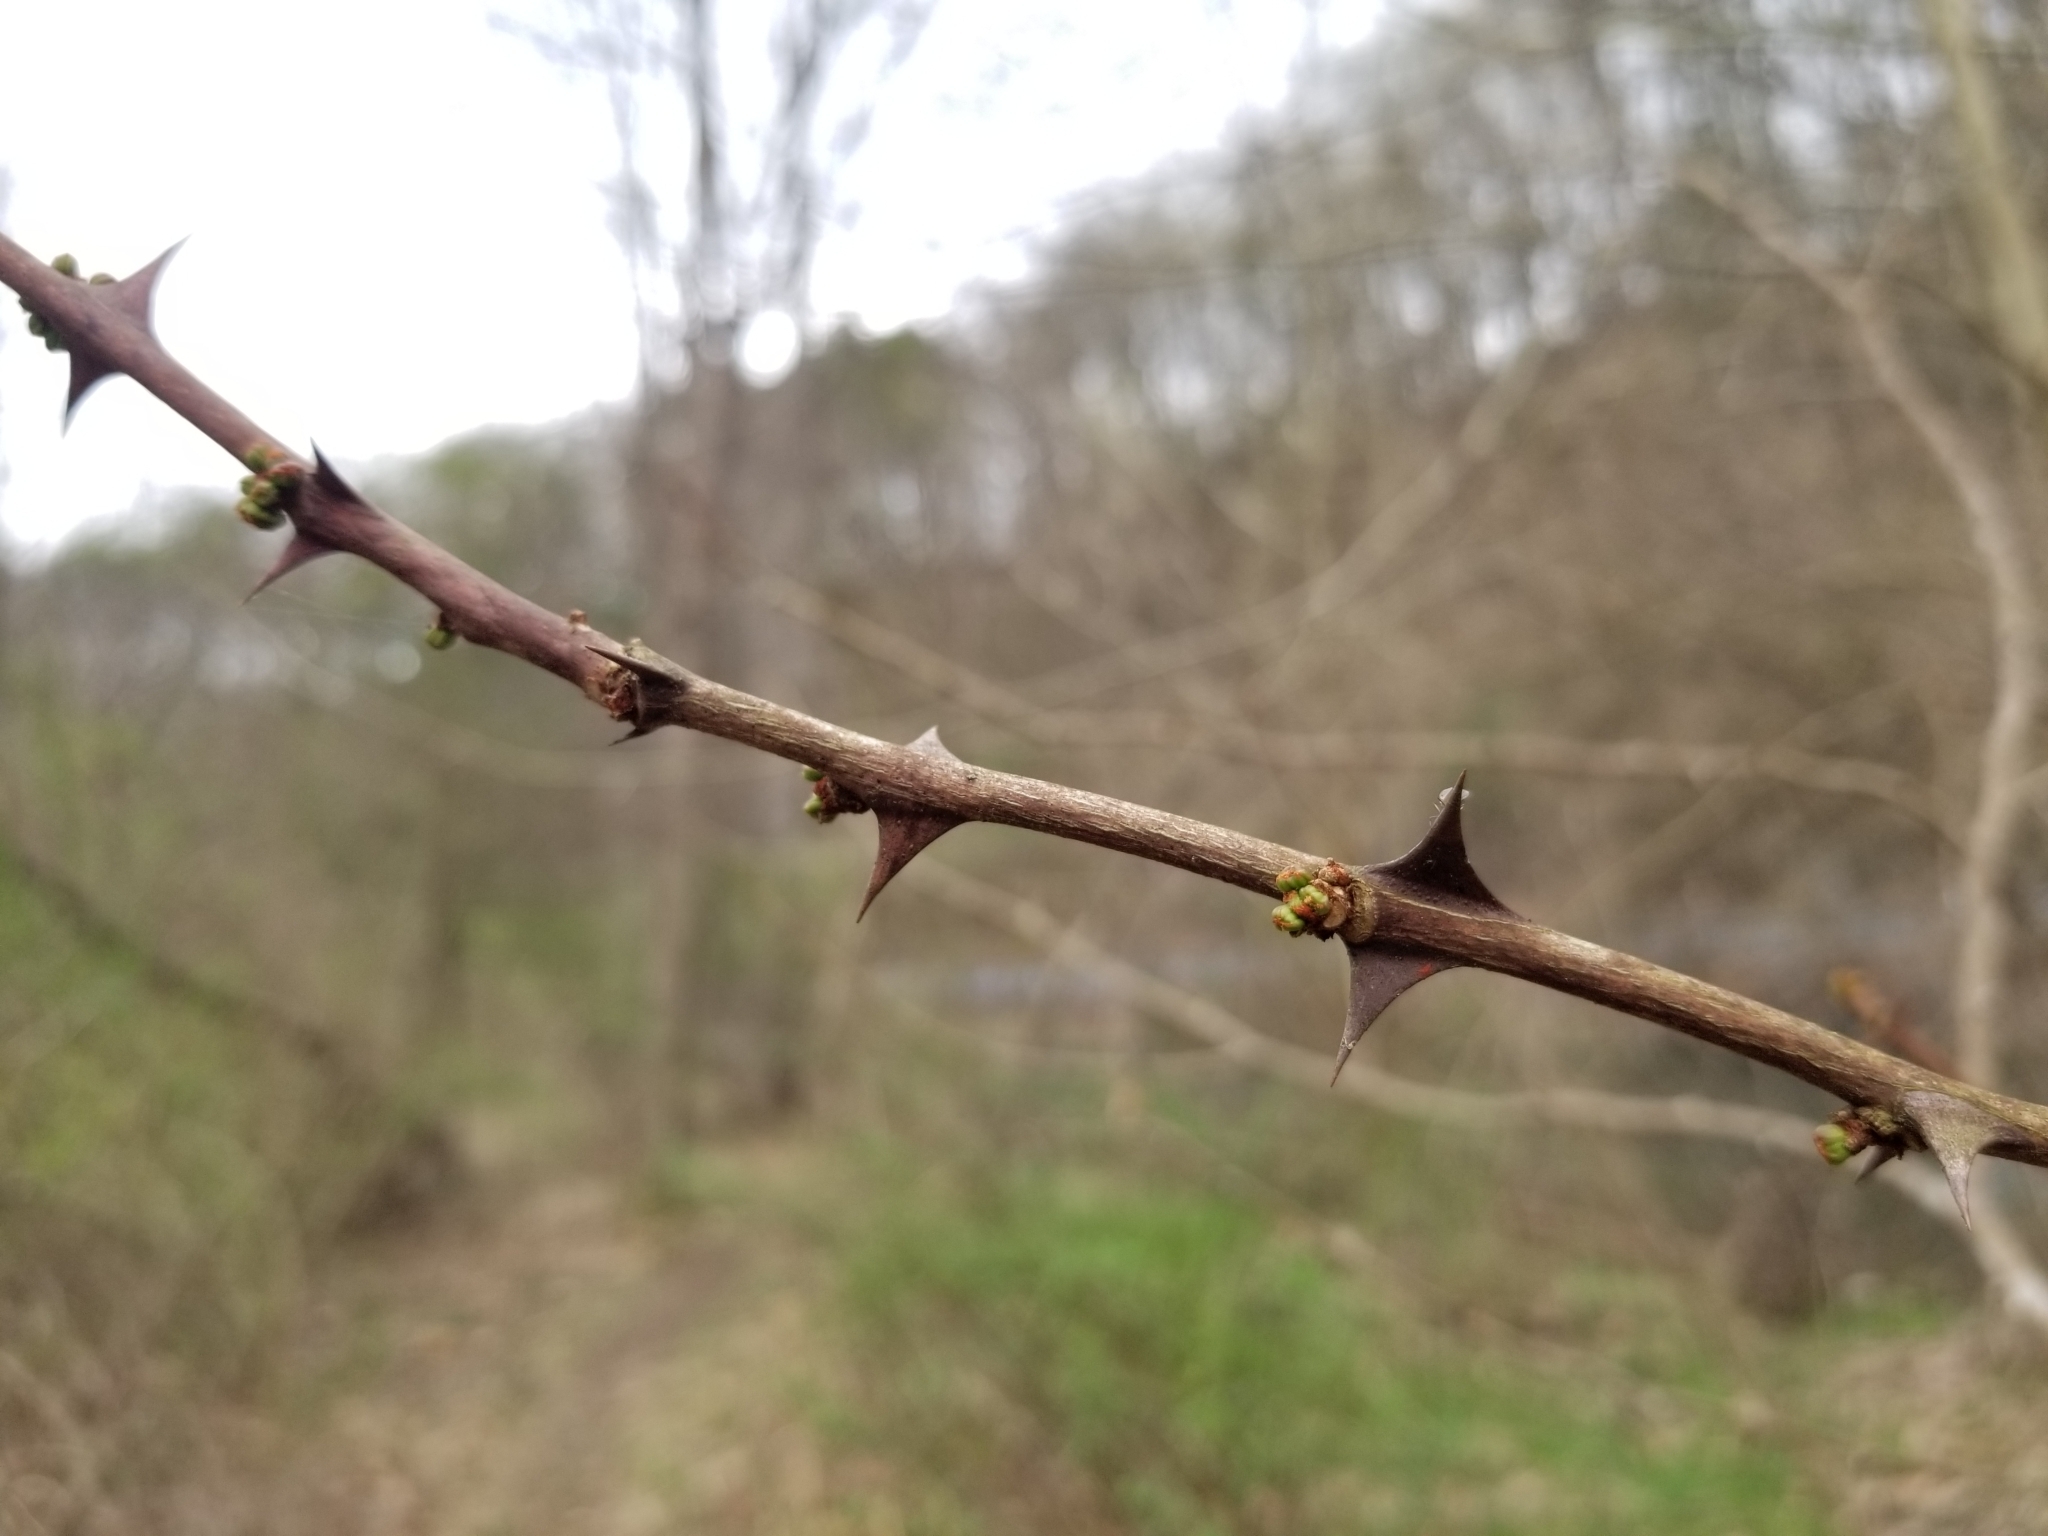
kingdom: Plantae
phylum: Tracheophyta
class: Magnoliopsida
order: Sapindales
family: Rutaceae
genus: Zanthoxylum
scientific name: Zanthoxylum americanum
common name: Northern prickly-ash
